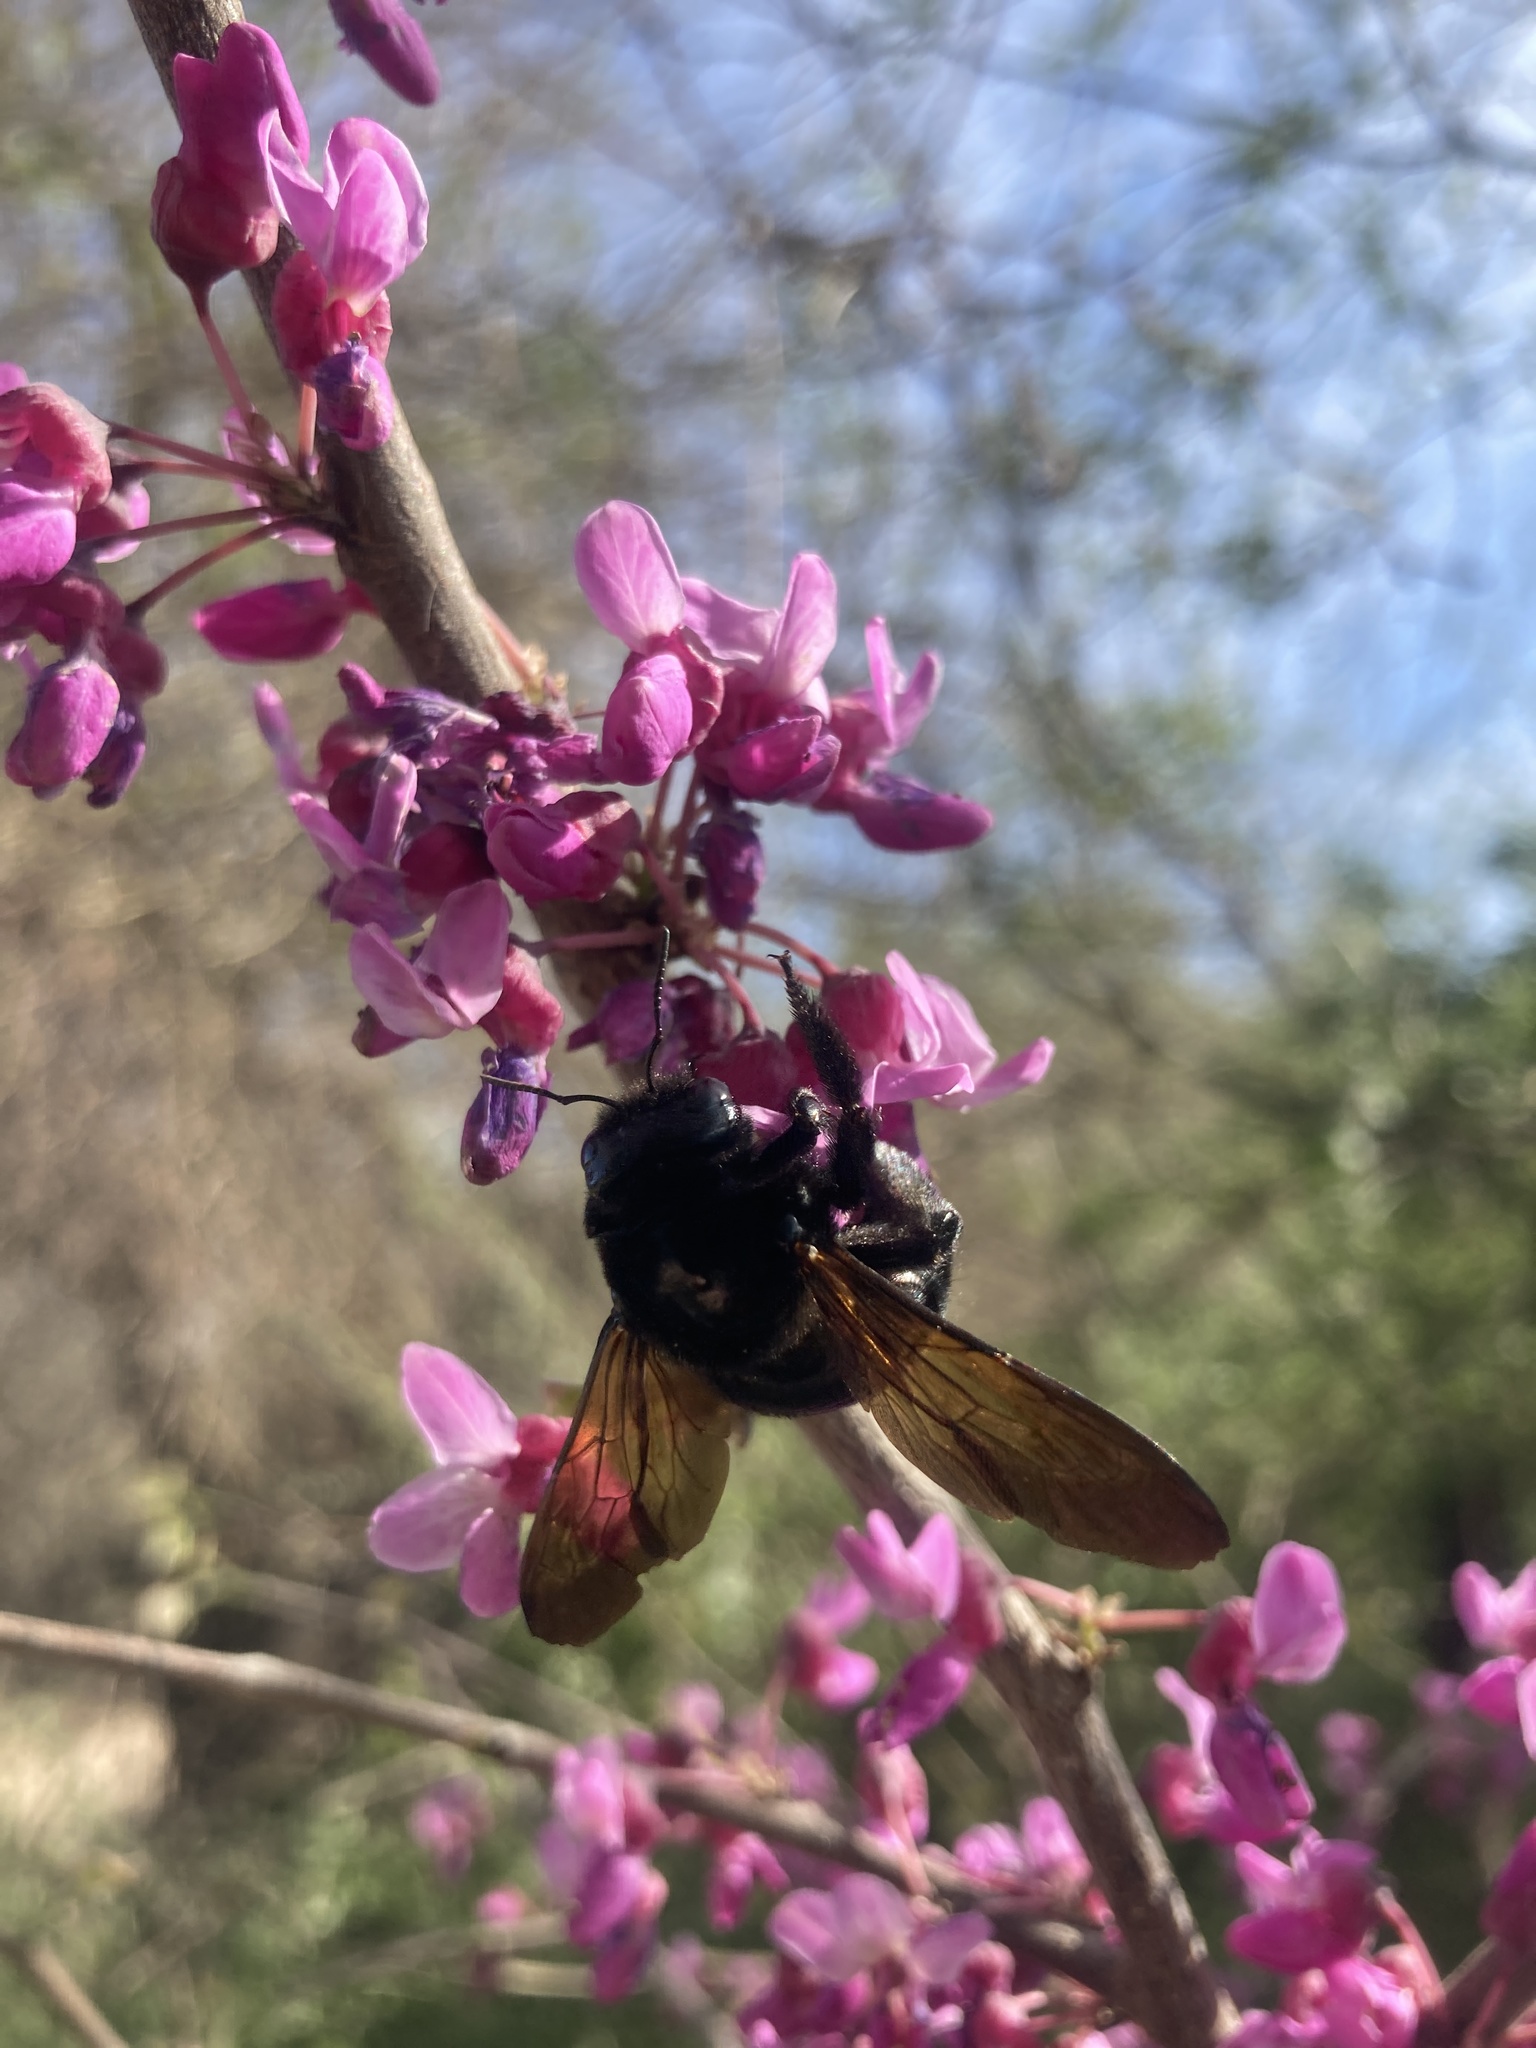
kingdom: Animalia
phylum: Arthropoda
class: Insecta
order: Hymenoptera
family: Apidae
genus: Xylocopa
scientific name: Xylocopa sonorina
